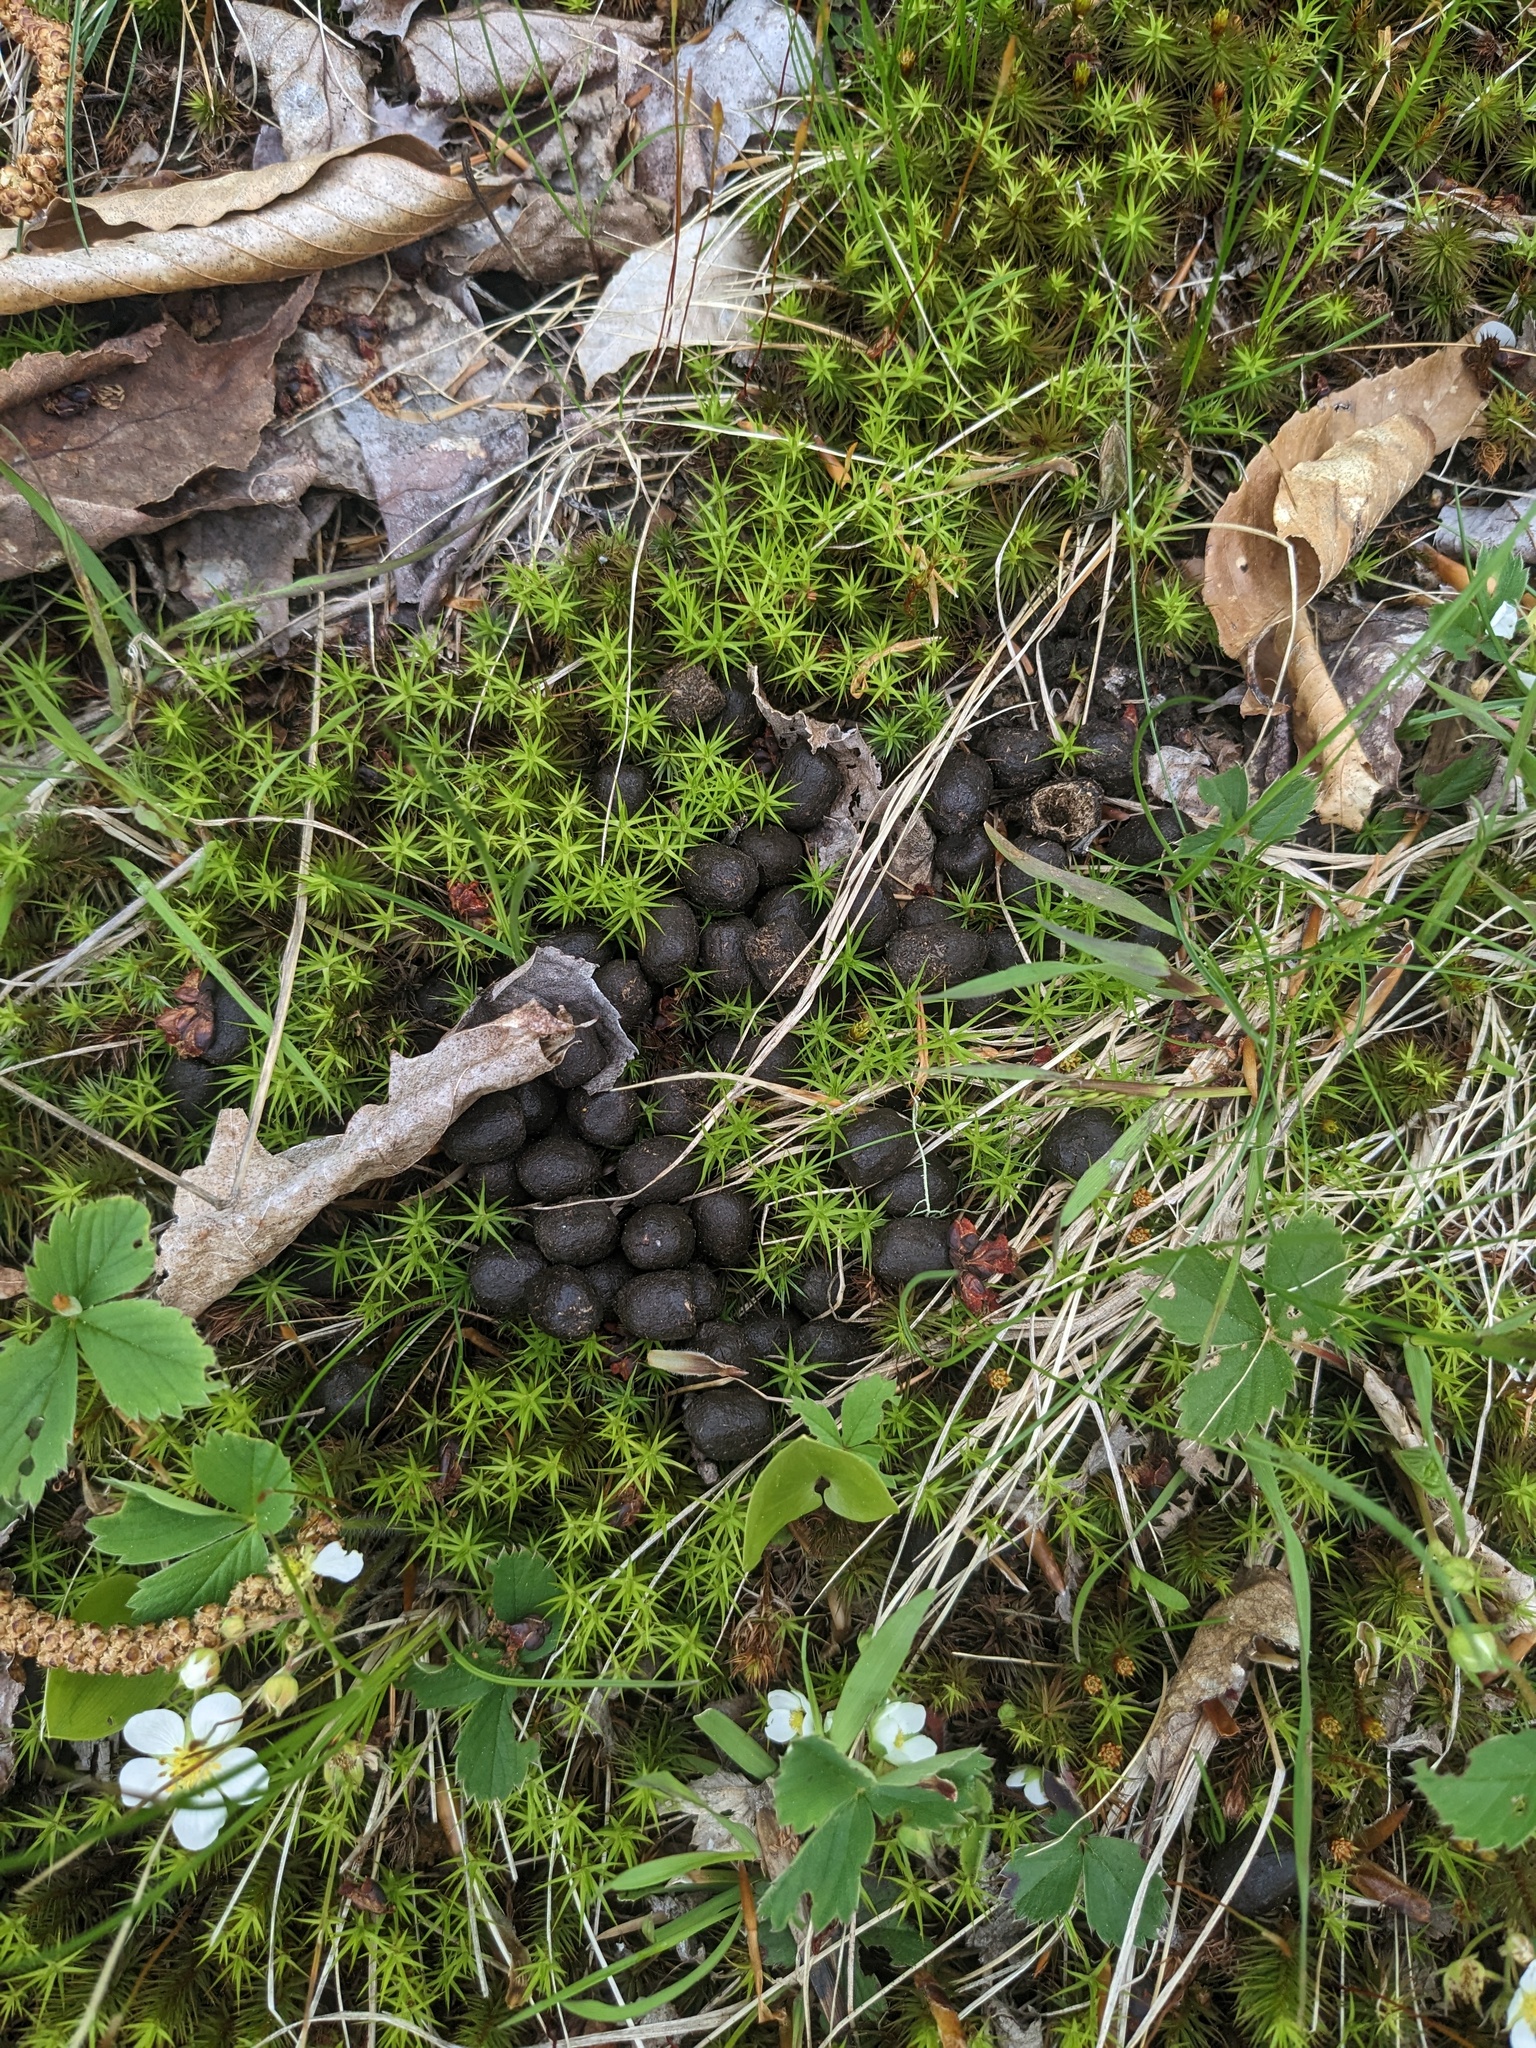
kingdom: Animalia
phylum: Chordata
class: Mammalia
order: Artiodactyla
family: Cervidae
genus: Alces
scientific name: Alces alces
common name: Moose
